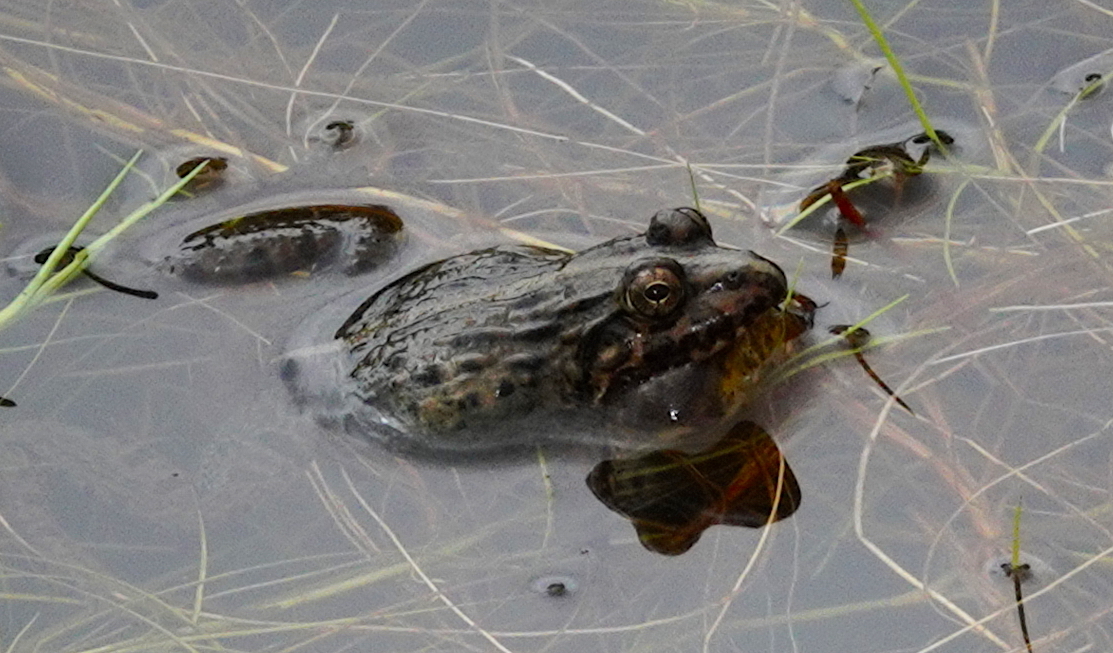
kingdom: Animalia
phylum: Chordata
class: Amphibia
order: Anura
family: Dicroglossidae
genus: Minervarya
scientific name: Minervarya greenii
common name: Montane frog
